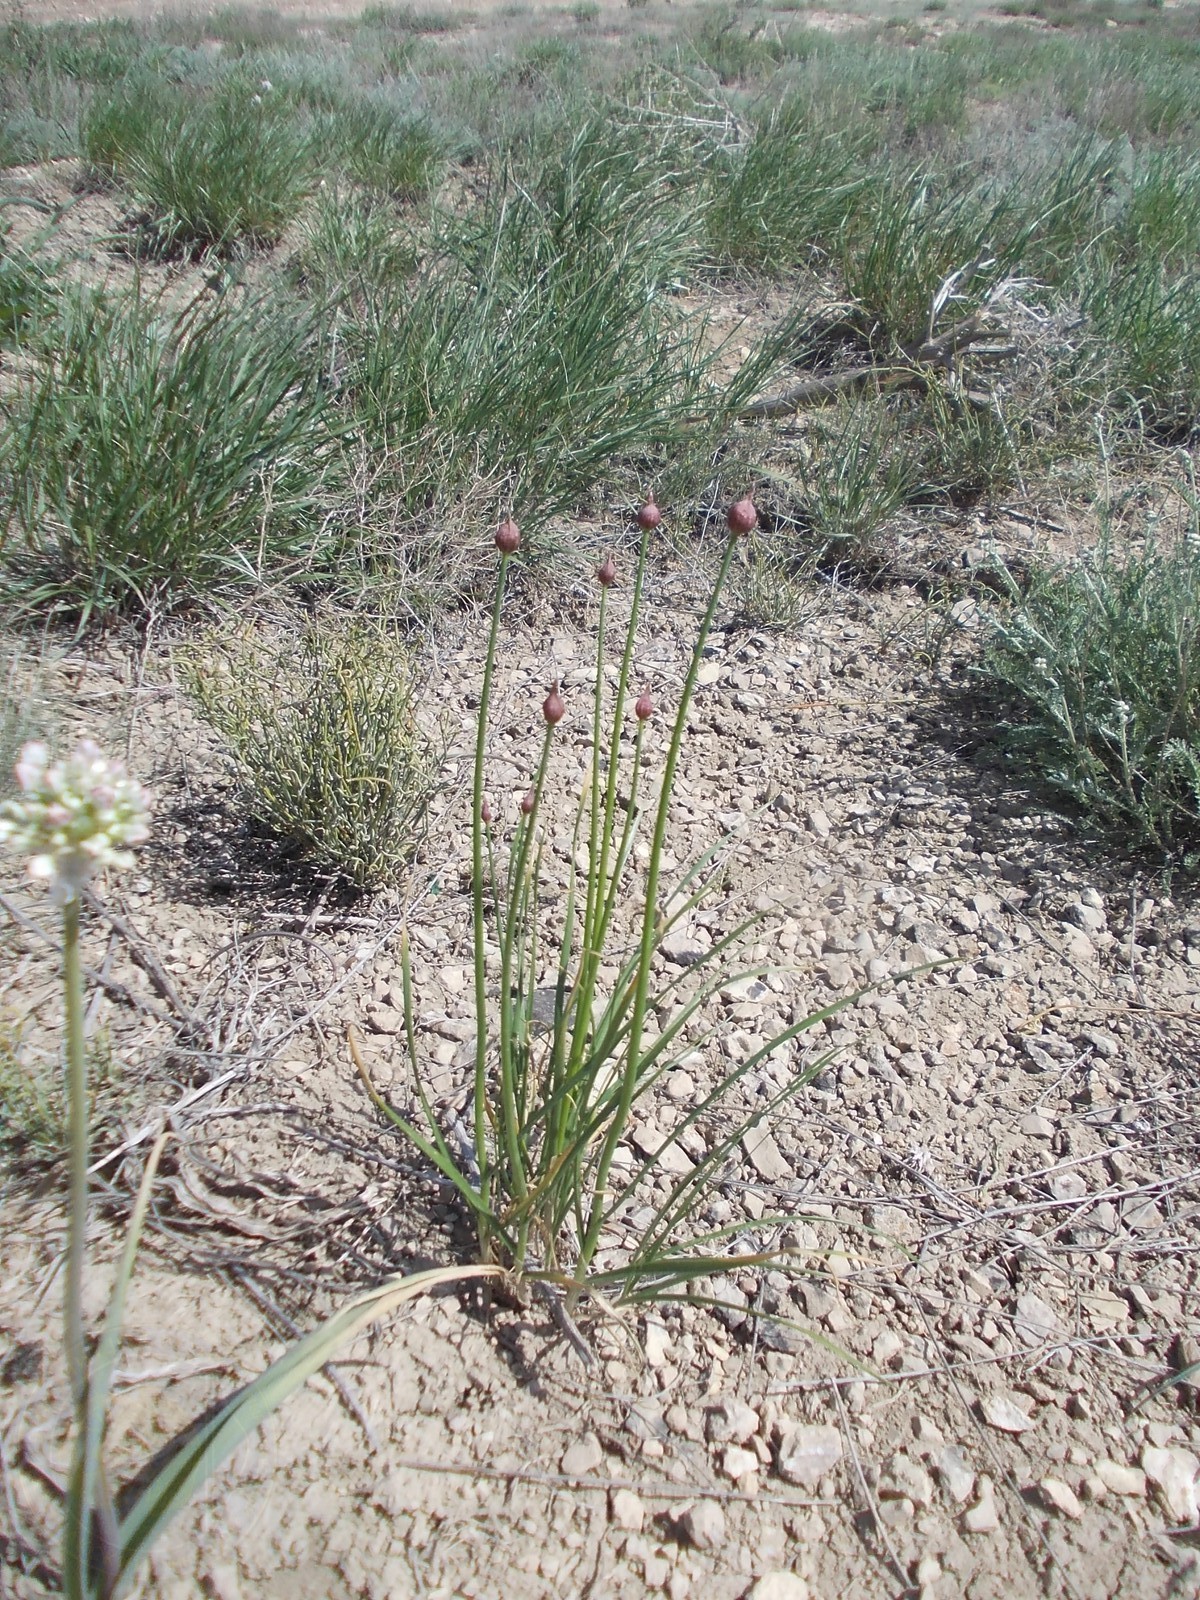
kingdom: Plantae
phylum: Tracheophyta
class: Liliopsida
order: Asparagales
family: Amaryllidaceae
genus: Allium
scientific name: Allium inderiense
